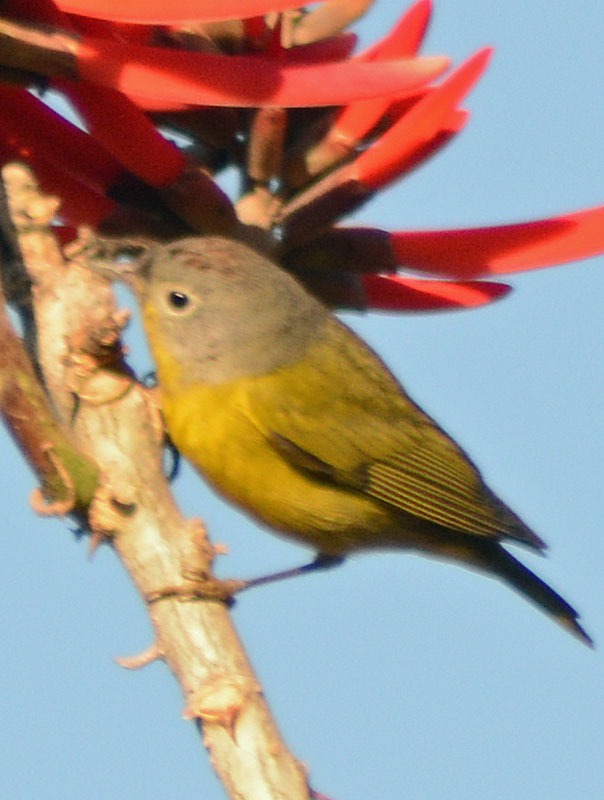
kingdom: Animalia
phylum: Chordata
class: Aves
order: Passeriformes
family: Parulidae
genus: Leiothlypis
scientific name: Leiothlypis ruficapilla
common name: Nashville warbler
